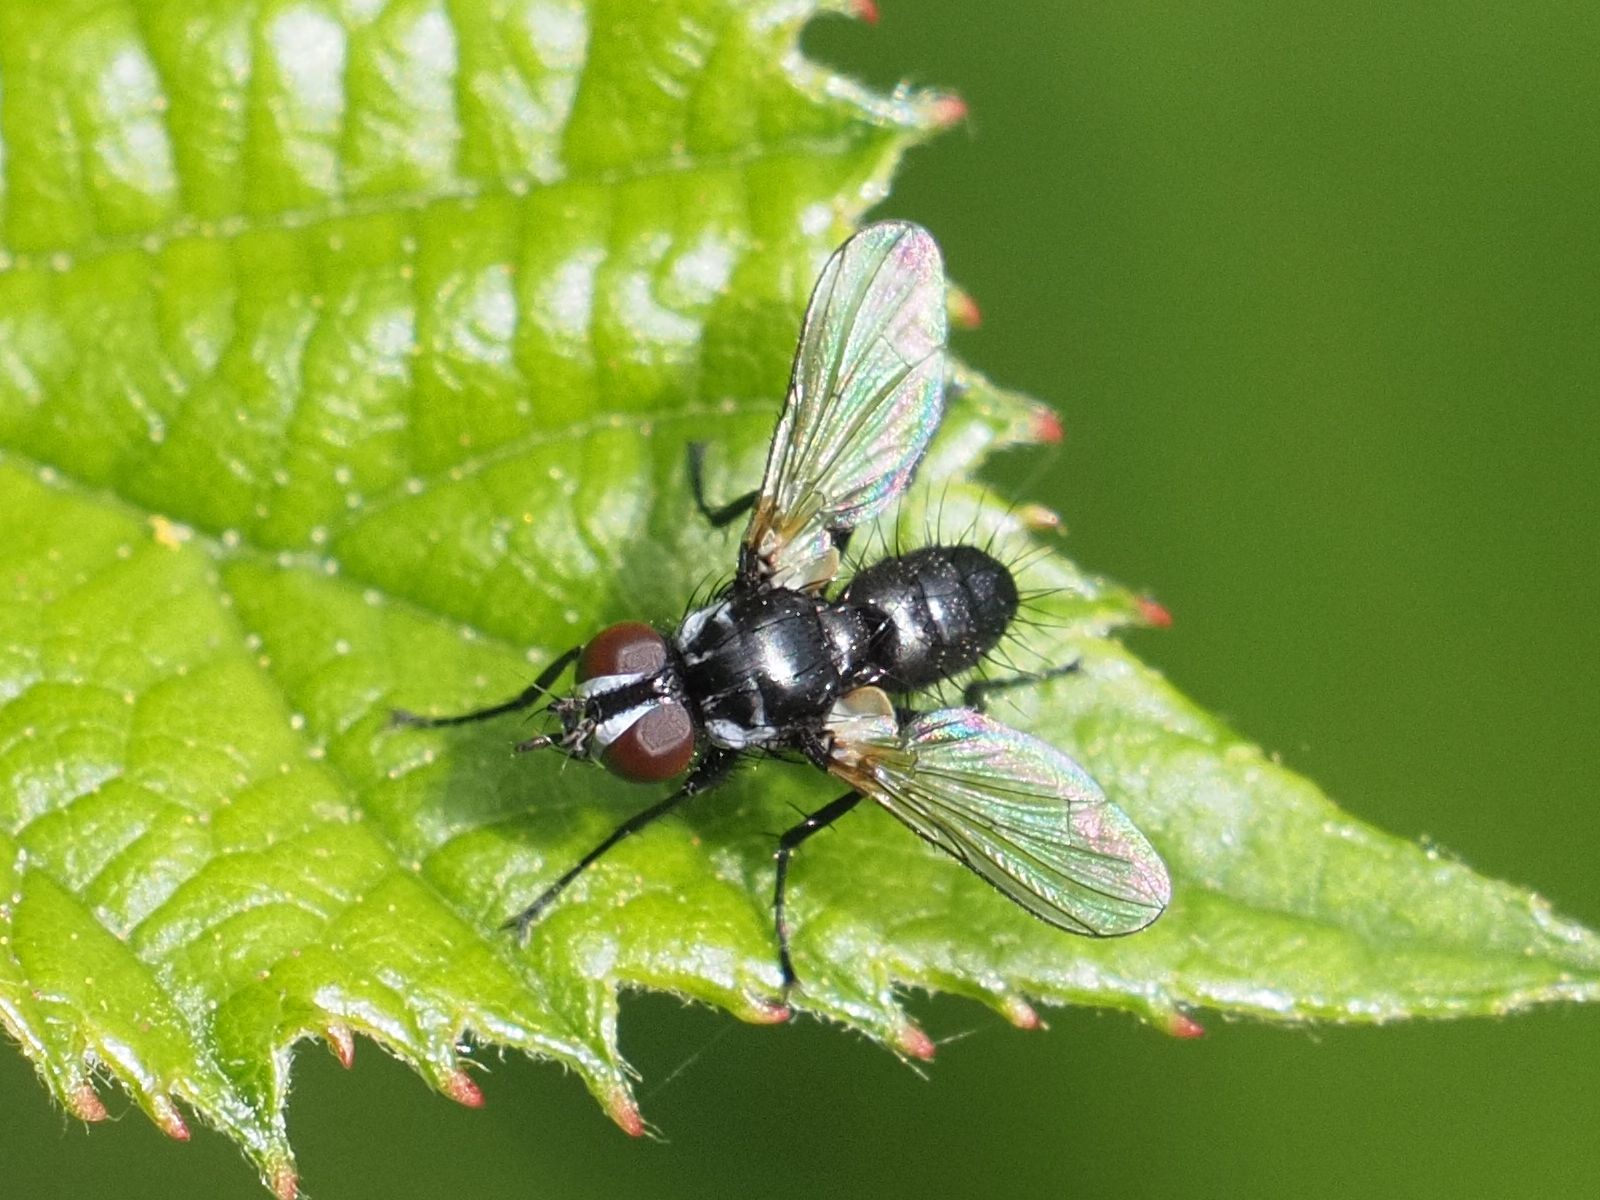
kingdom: Animalia
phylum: Arthropoda
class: Insecta
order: Diptera
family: Tachinidae
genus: Phania
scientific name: Phania funesta
